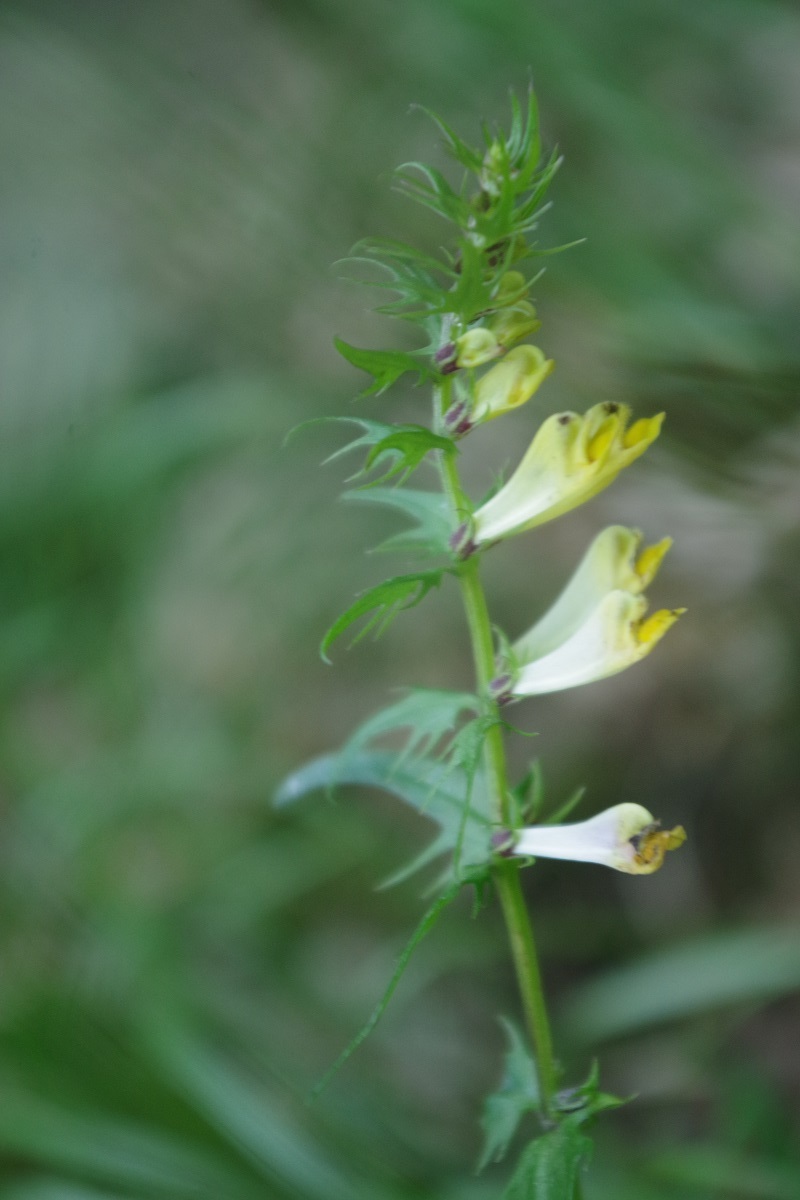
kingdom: Plantae
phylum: Tracheophyta
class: Magnoliopsida
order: Lamiales
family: Orobanchaceae
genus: Melampyrum
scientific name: Melampyrum pratense
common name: Common cow-wheat
